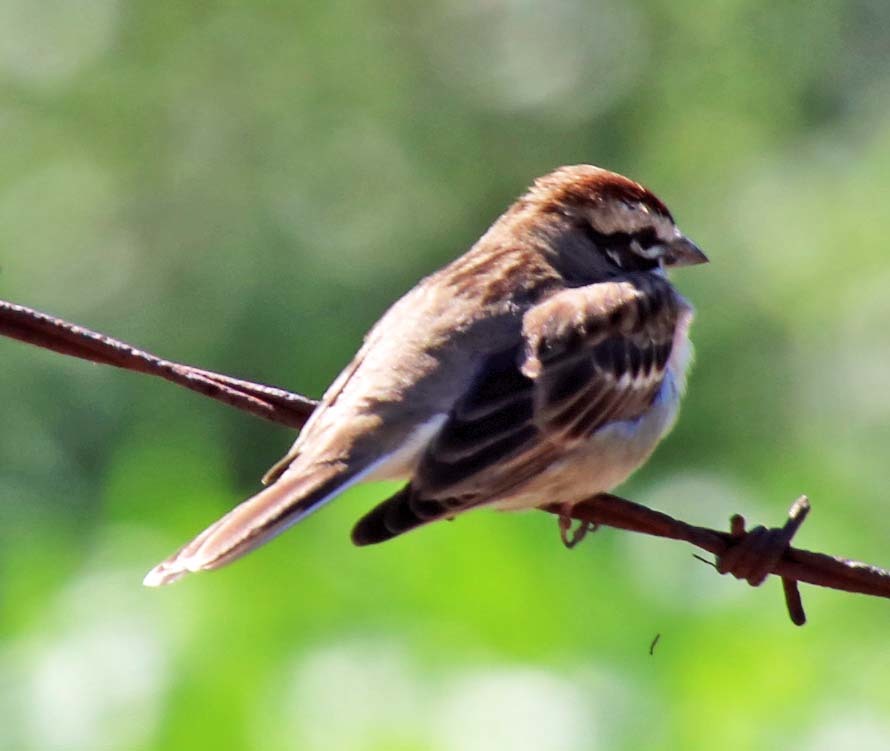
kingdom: Animalia
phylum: Chordata
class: Aves
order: Passeriformes
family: Passerellidae
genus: Chondestes
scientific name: Chondestes grammacus
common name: Lark sparrow
